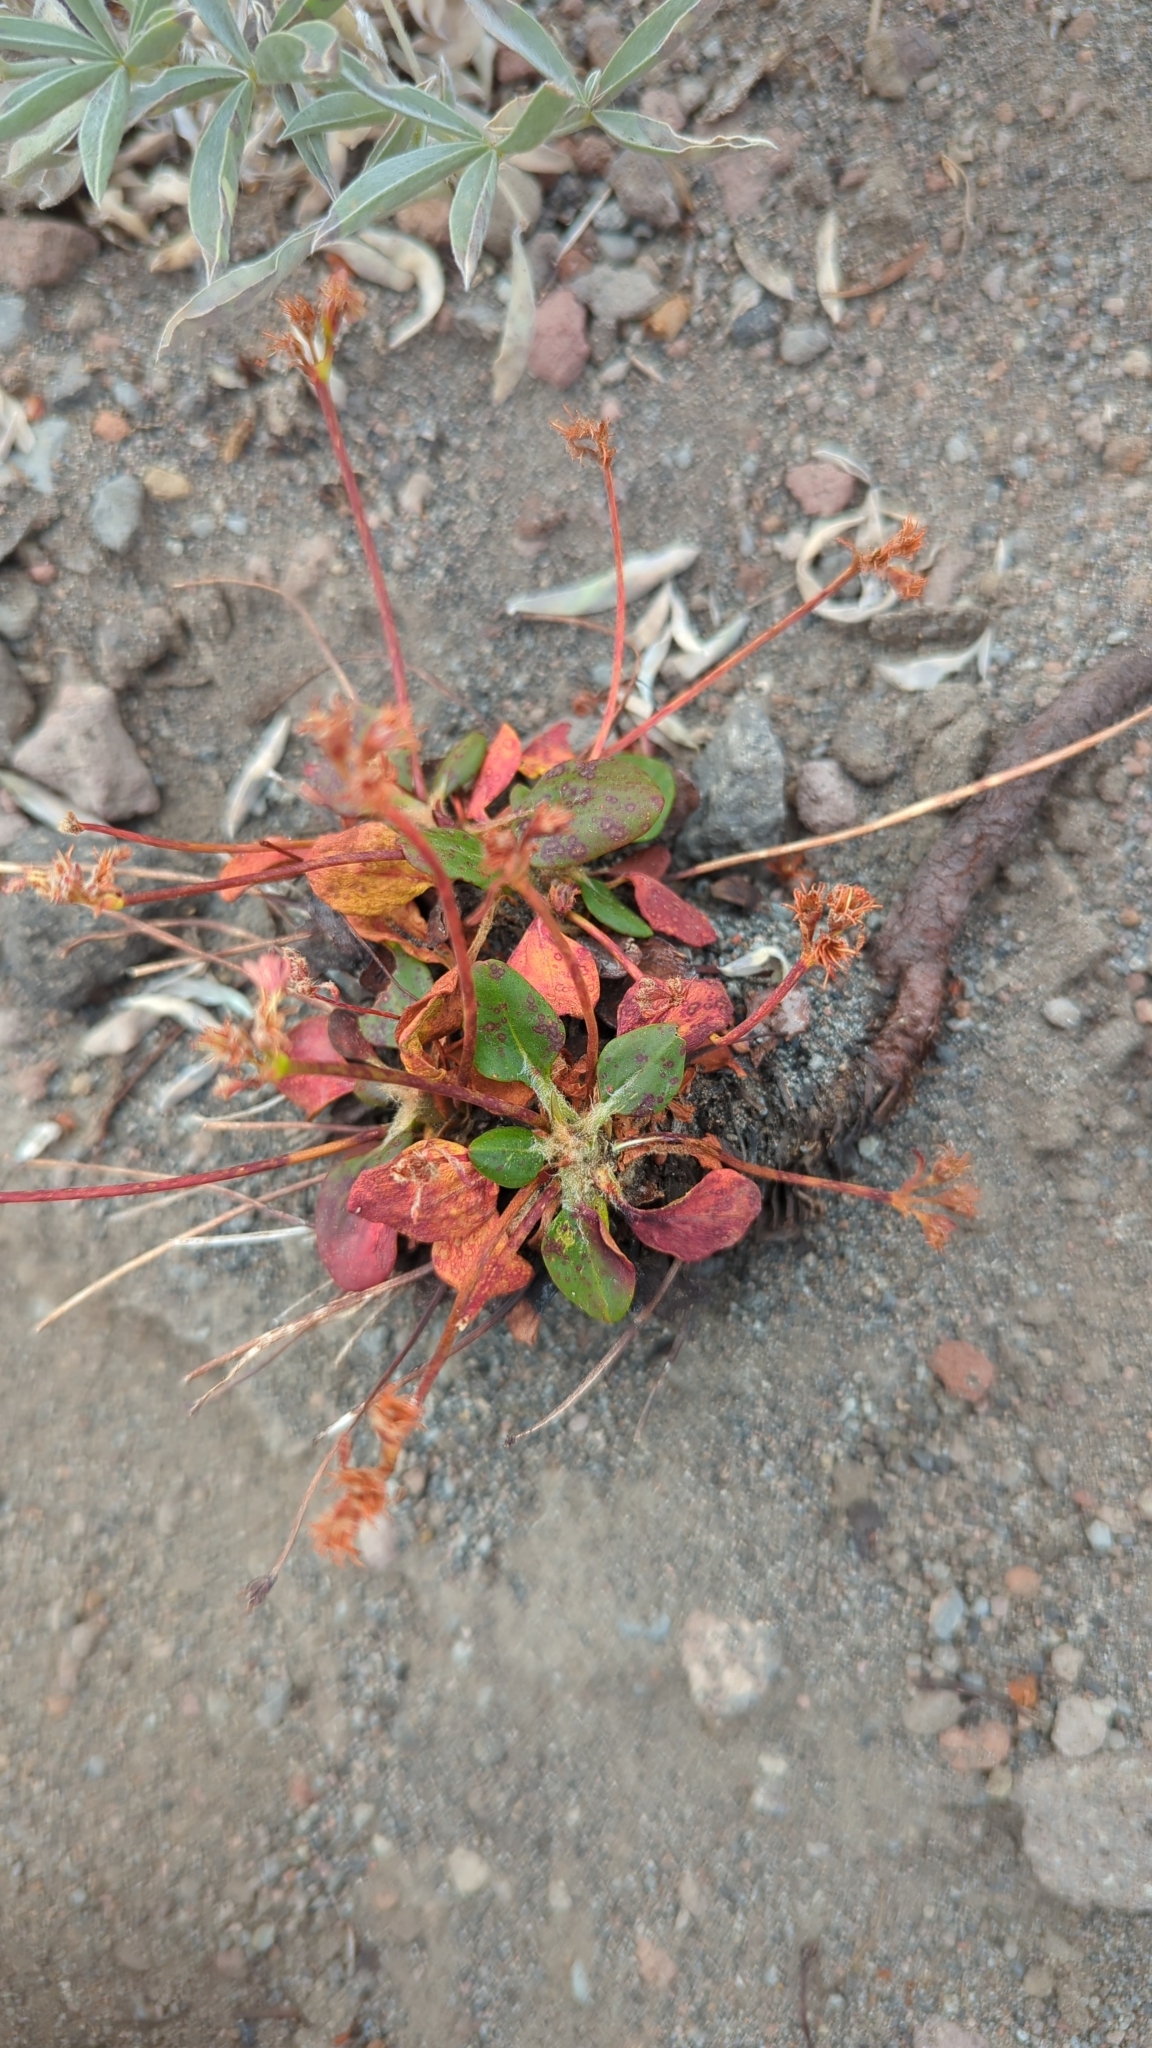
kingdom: Plantae
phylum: Tracheophyta
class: Magnoliopsida
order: Caryophyllales
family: Polygonaceae
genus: Eriogonum
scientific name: Eriogonum pyrolifolium
